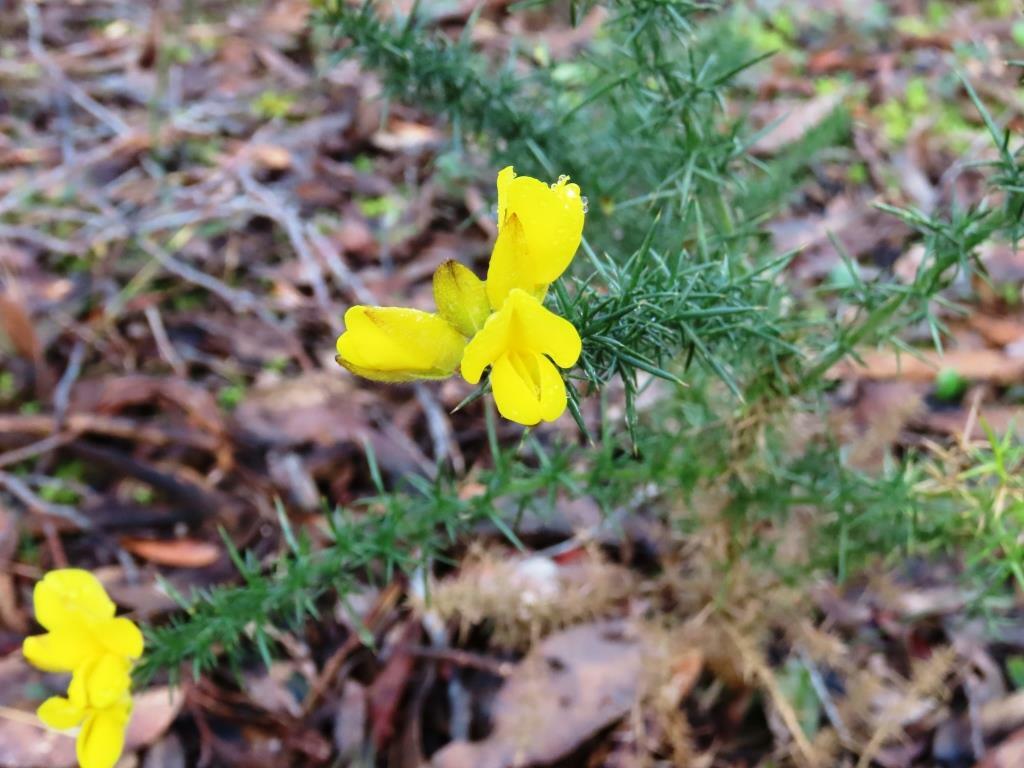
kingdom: Plantae
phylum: Tracheophyta
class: Magnoliopsida
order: Fabales
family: Fabaceae
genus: Ulex
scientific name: Ulex europaeus
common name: Common gorse
